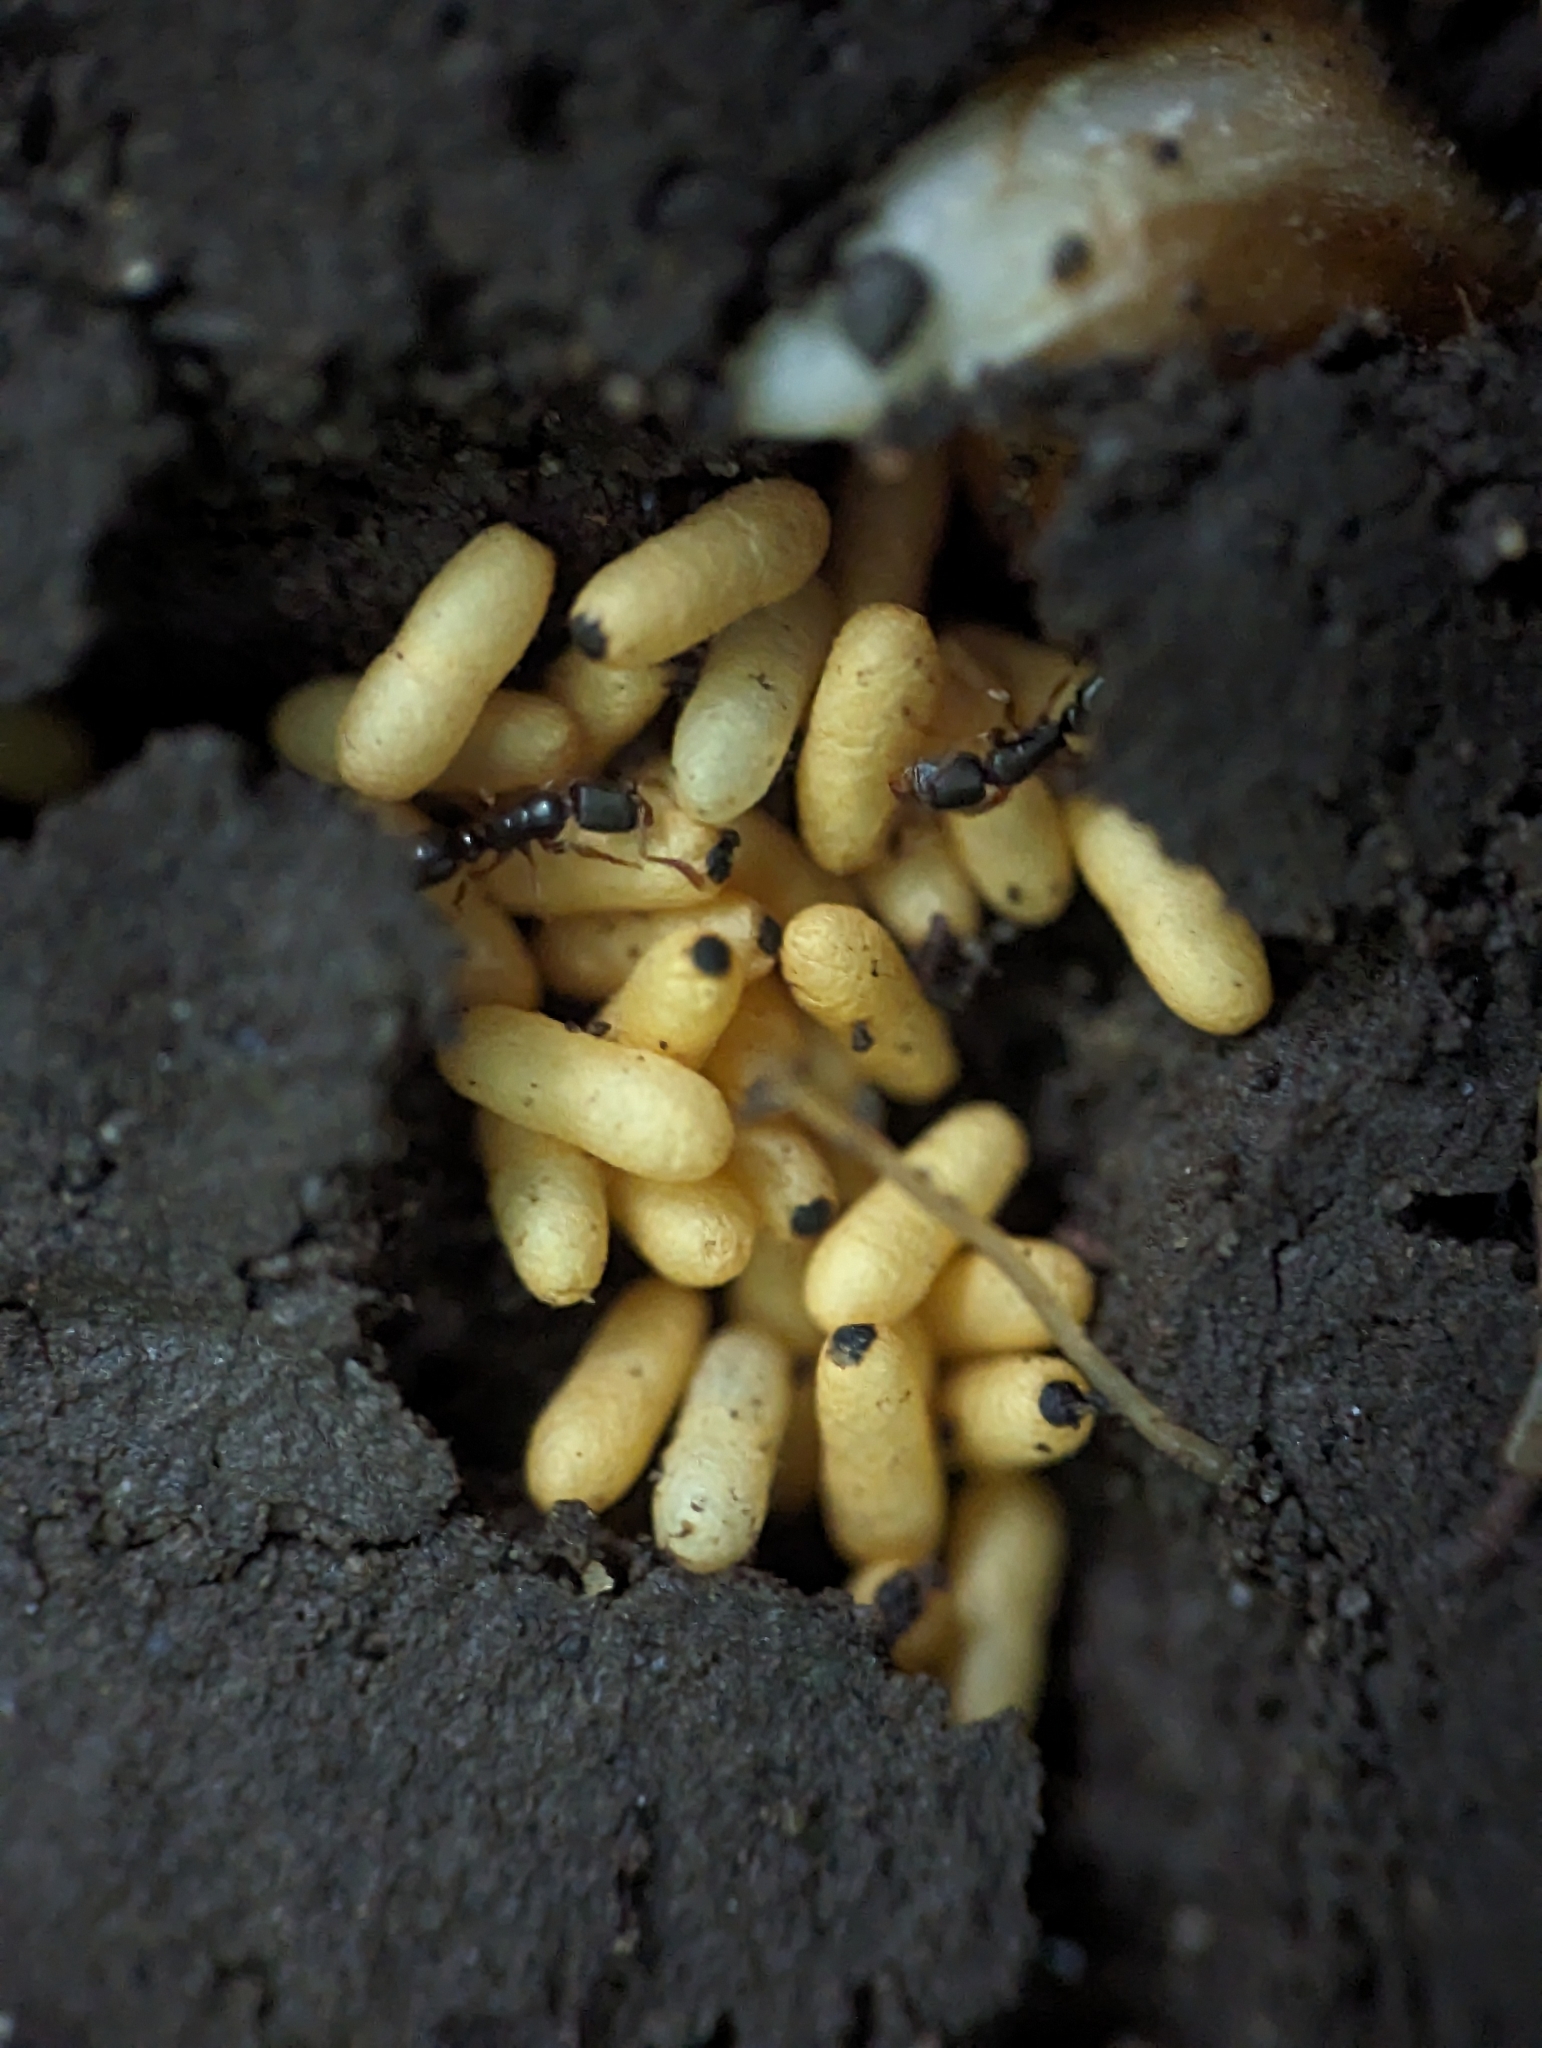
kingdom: Animalia
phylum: Arthropoda
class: Insecta
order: Hymenoptera
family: Formicidae
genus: Ponera
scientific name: Ponera pennsylvanica
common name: Pennsylvania ponera
